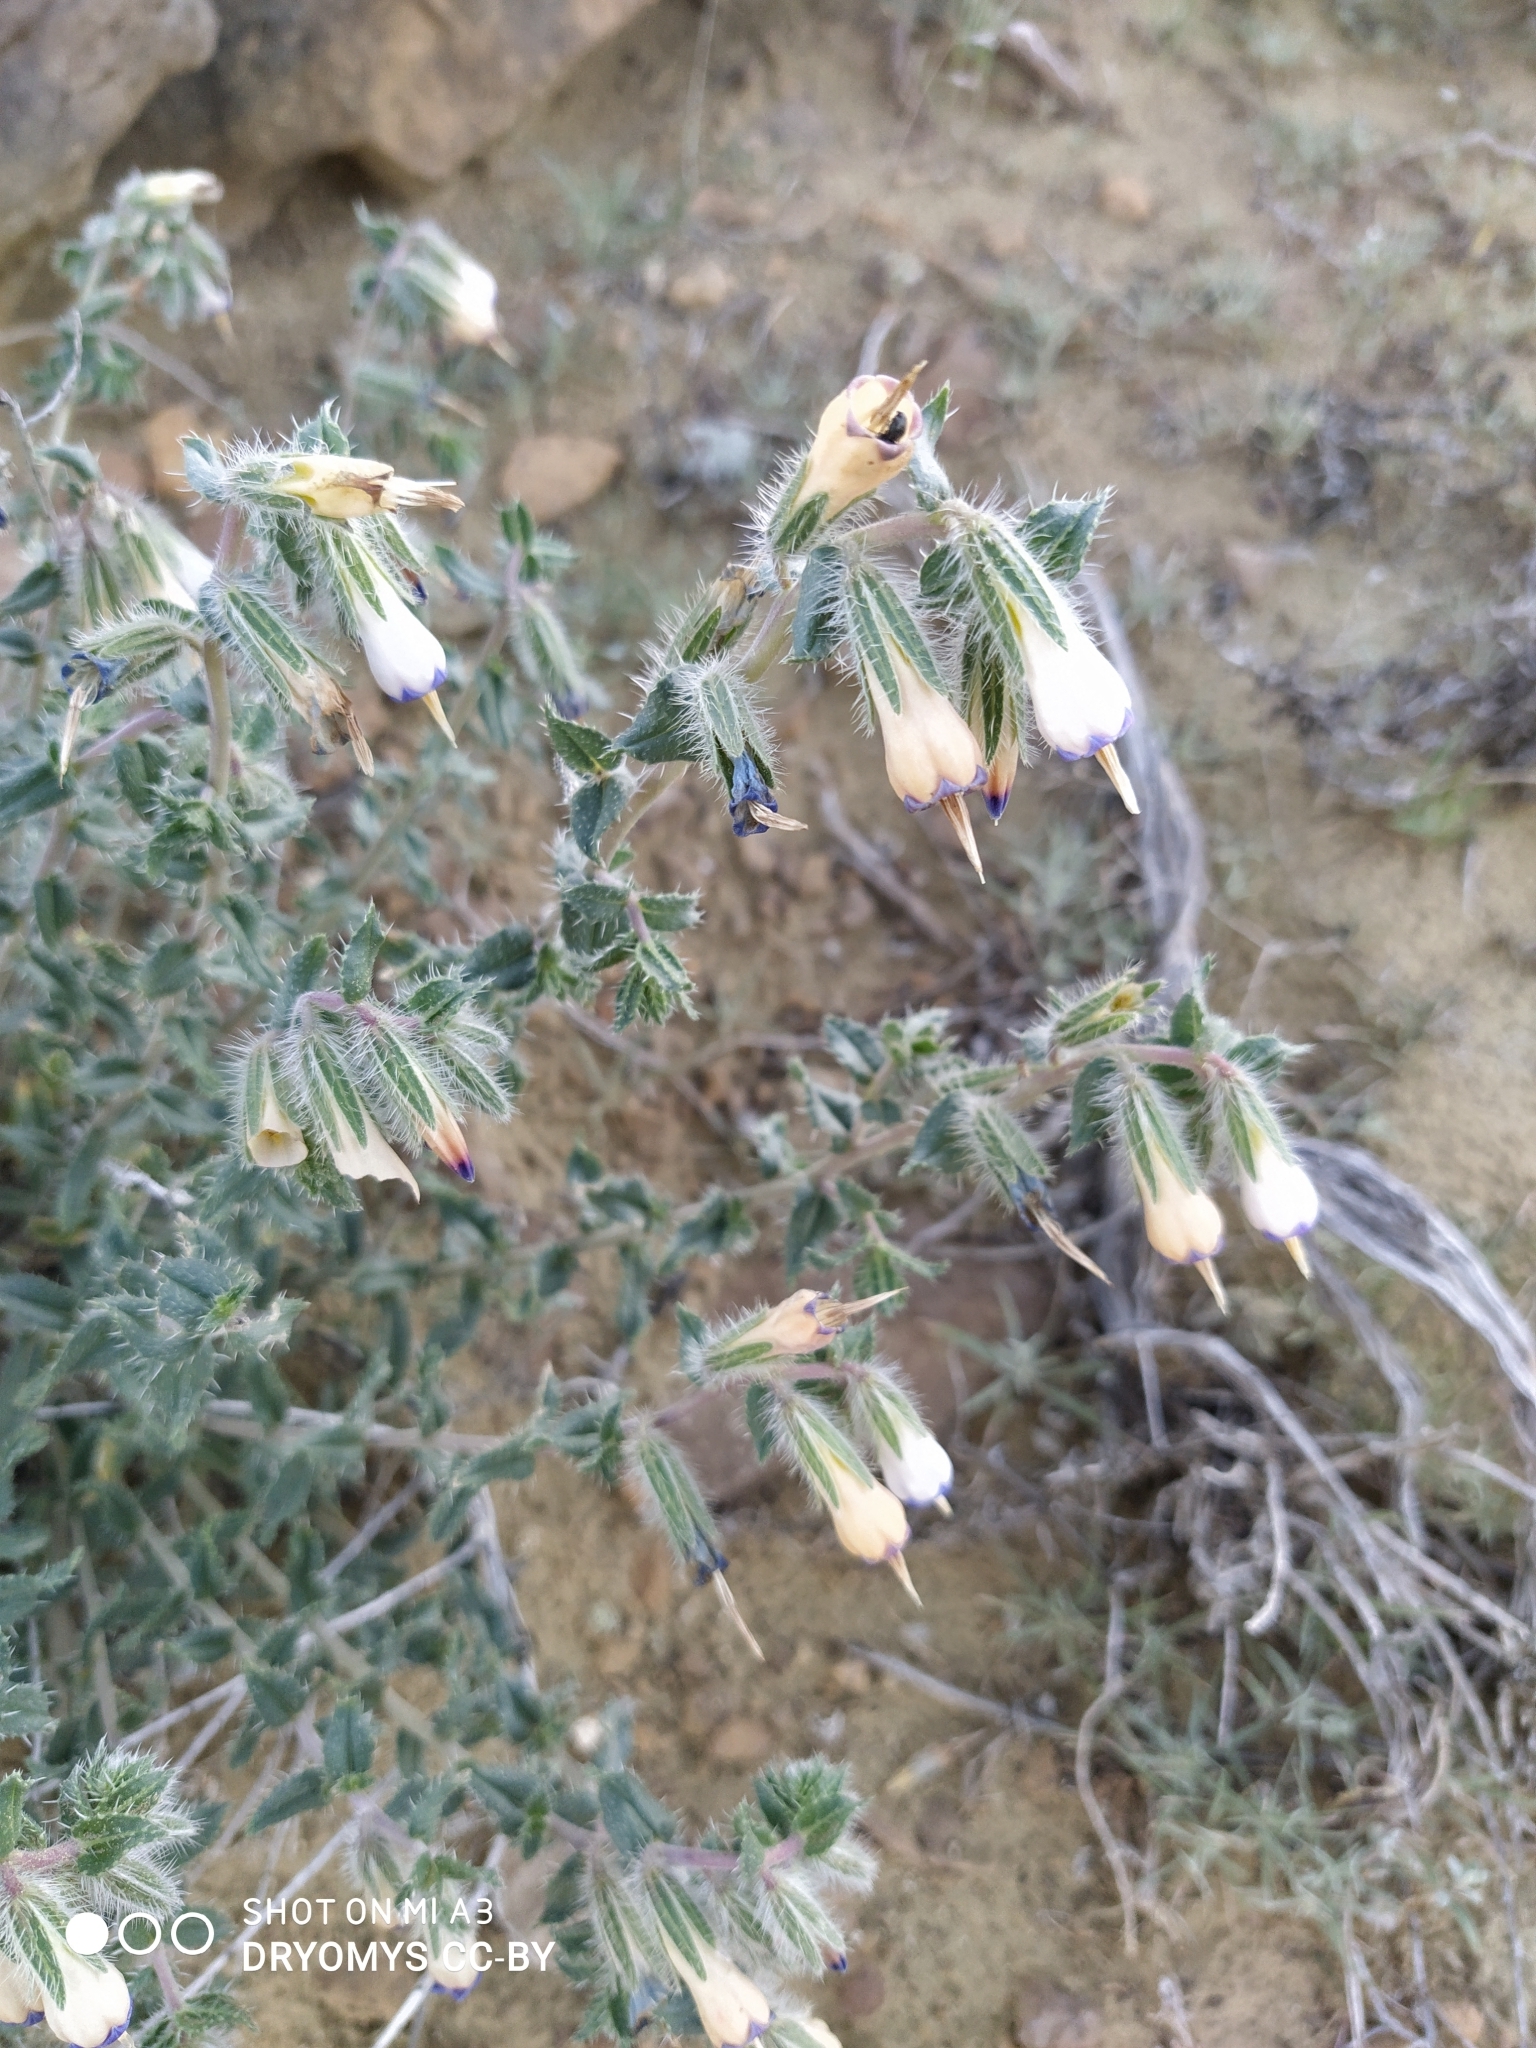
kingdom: Plantae
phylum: Tracheophyta
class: Magnoliopsida
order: Boraginales
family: Boraginaceae
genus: Onosma
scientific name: Onosma staminea
